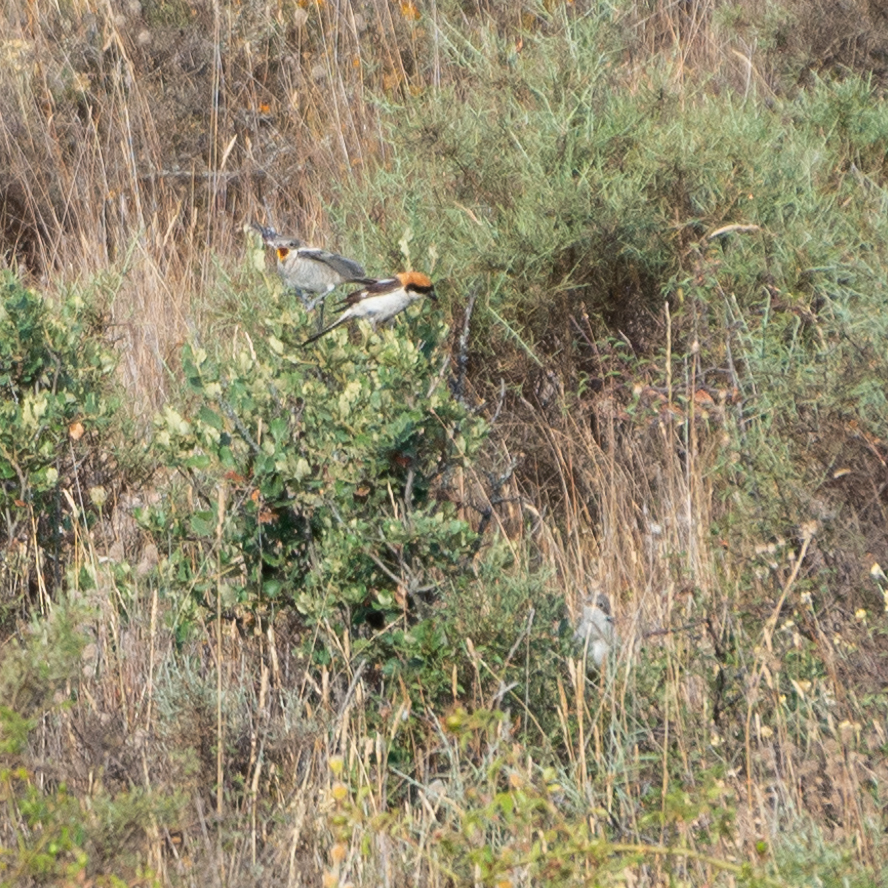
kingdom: Animalia
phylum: Chordata
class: Aves
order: Passeriformes
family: Laniidae
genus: Lanius
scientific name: Lanius senator
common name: Woodchat shrike
